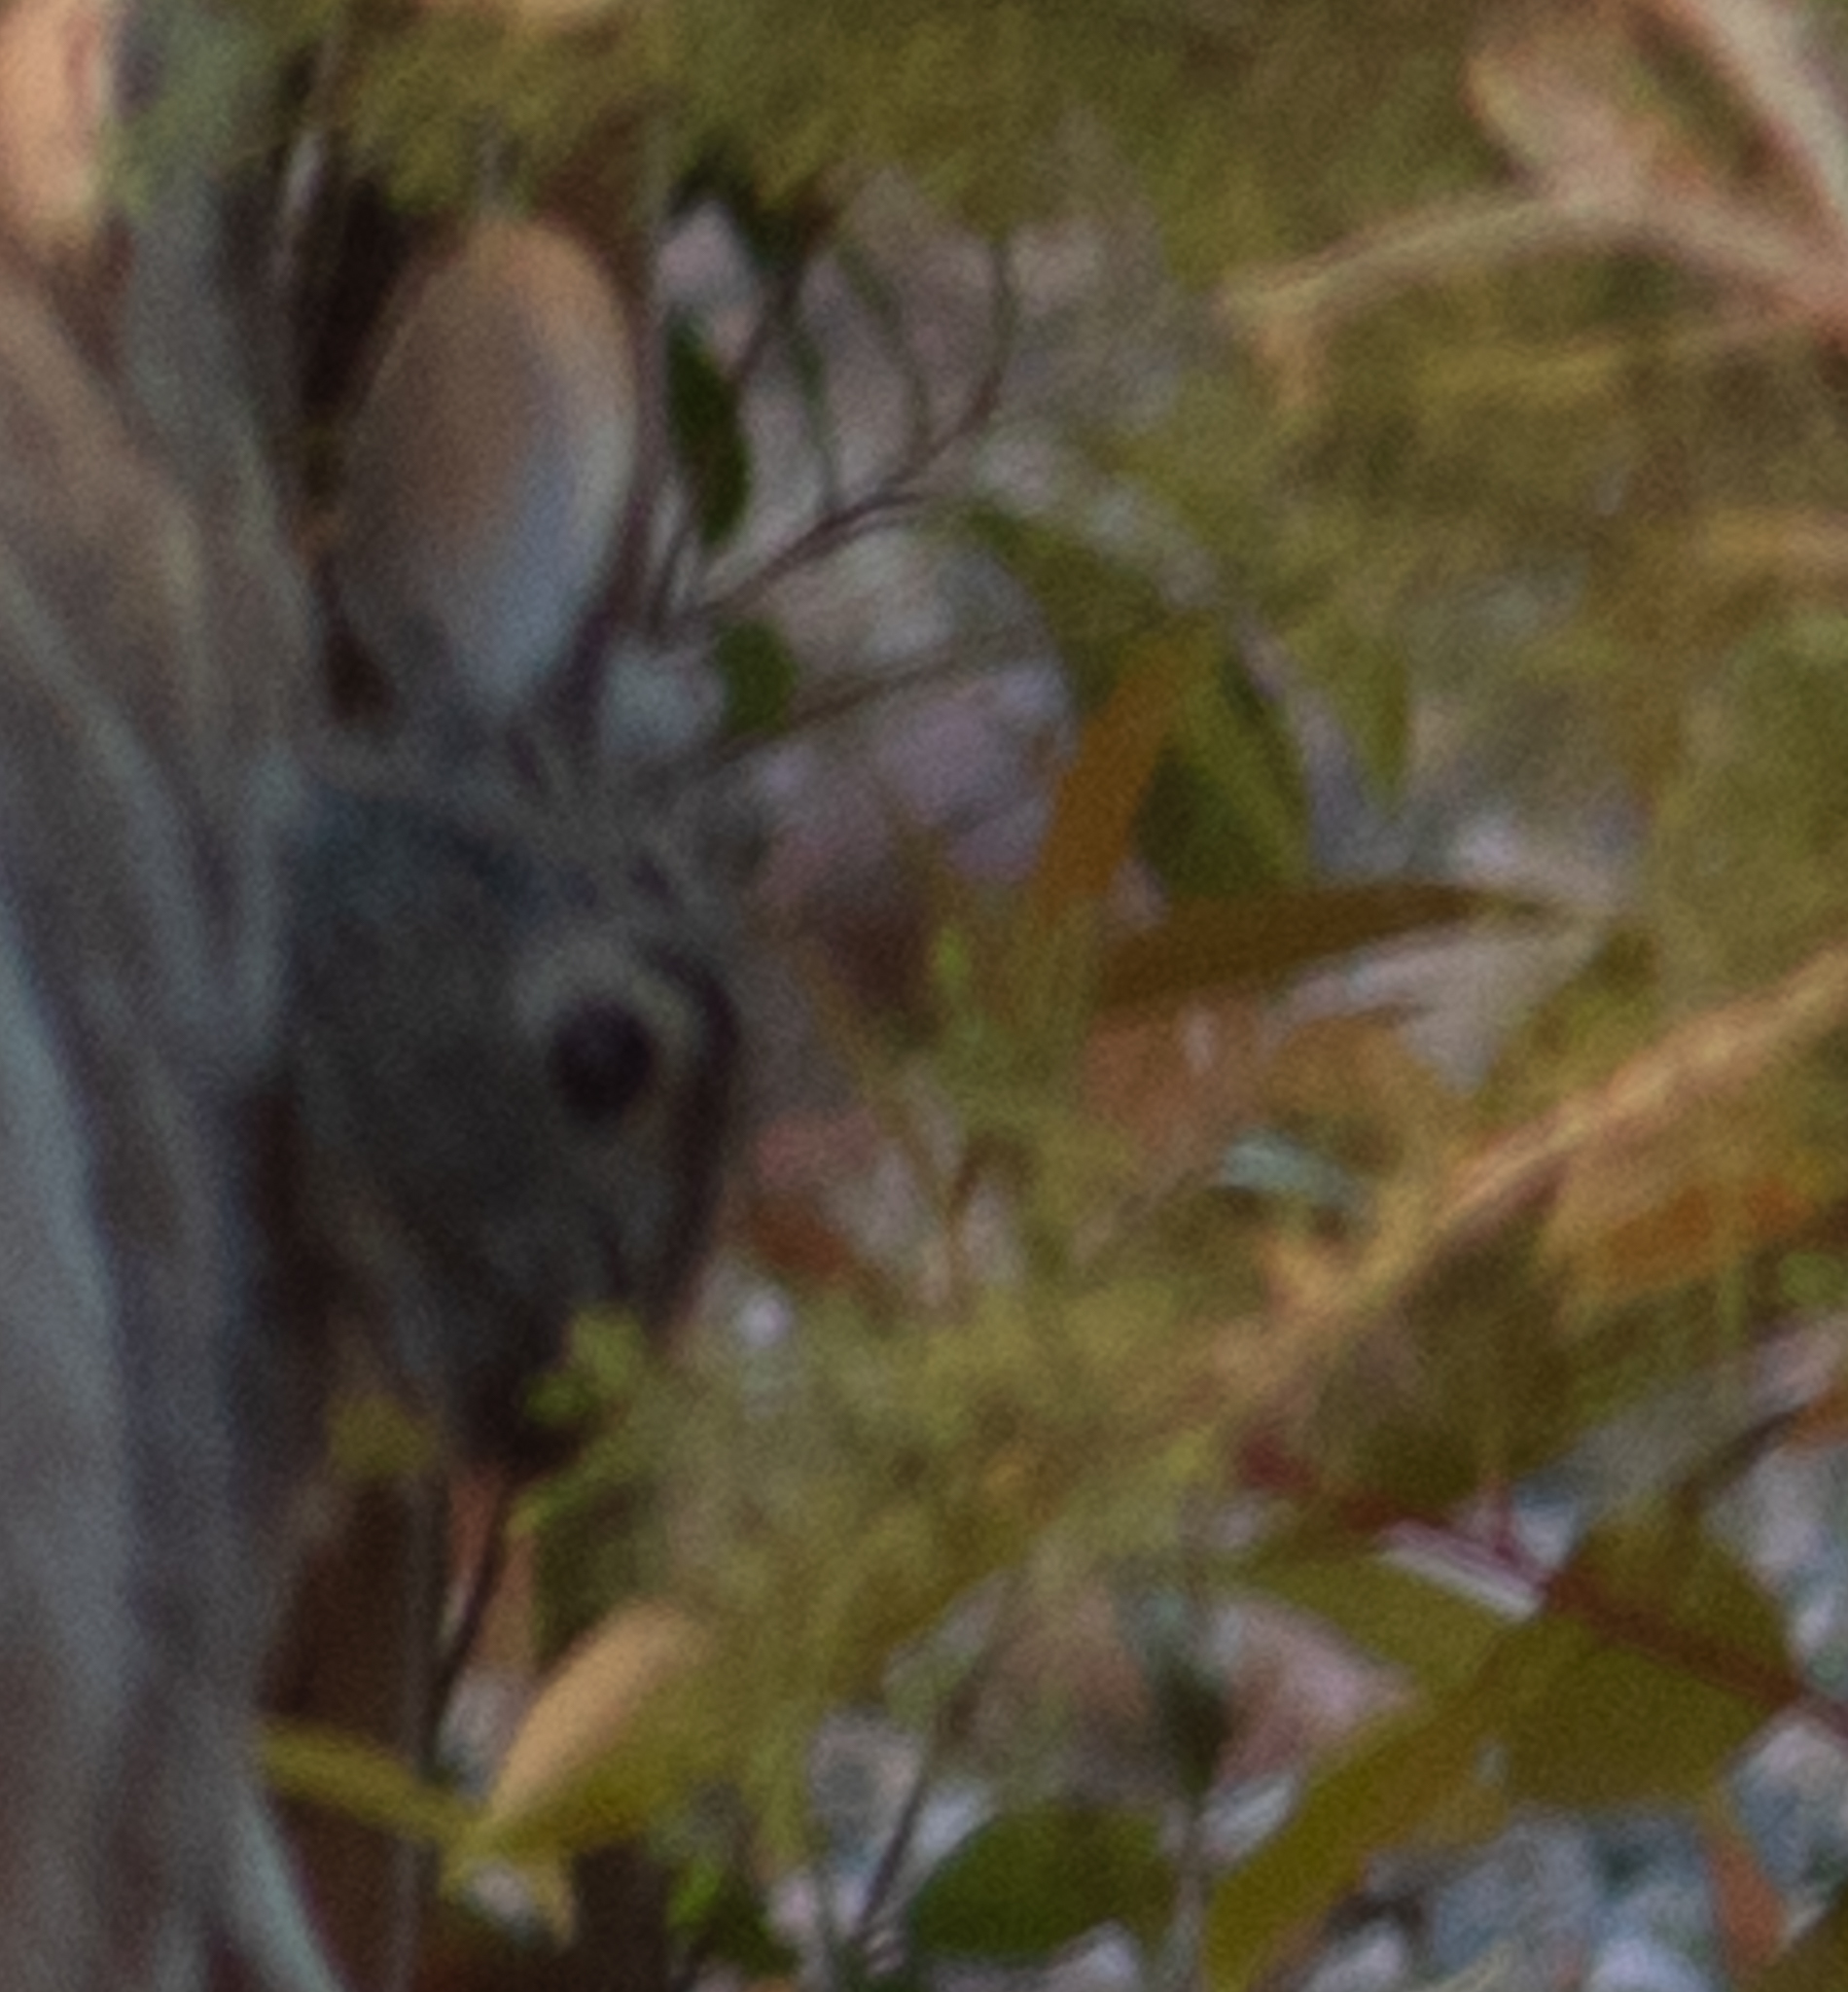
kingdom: Animalia
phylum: Chordata
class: Mammalia
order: Lagomorpha
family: Leporidae
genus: Sylvilagus
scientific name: Sylvilagus audubonii
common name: Desert cottontail
